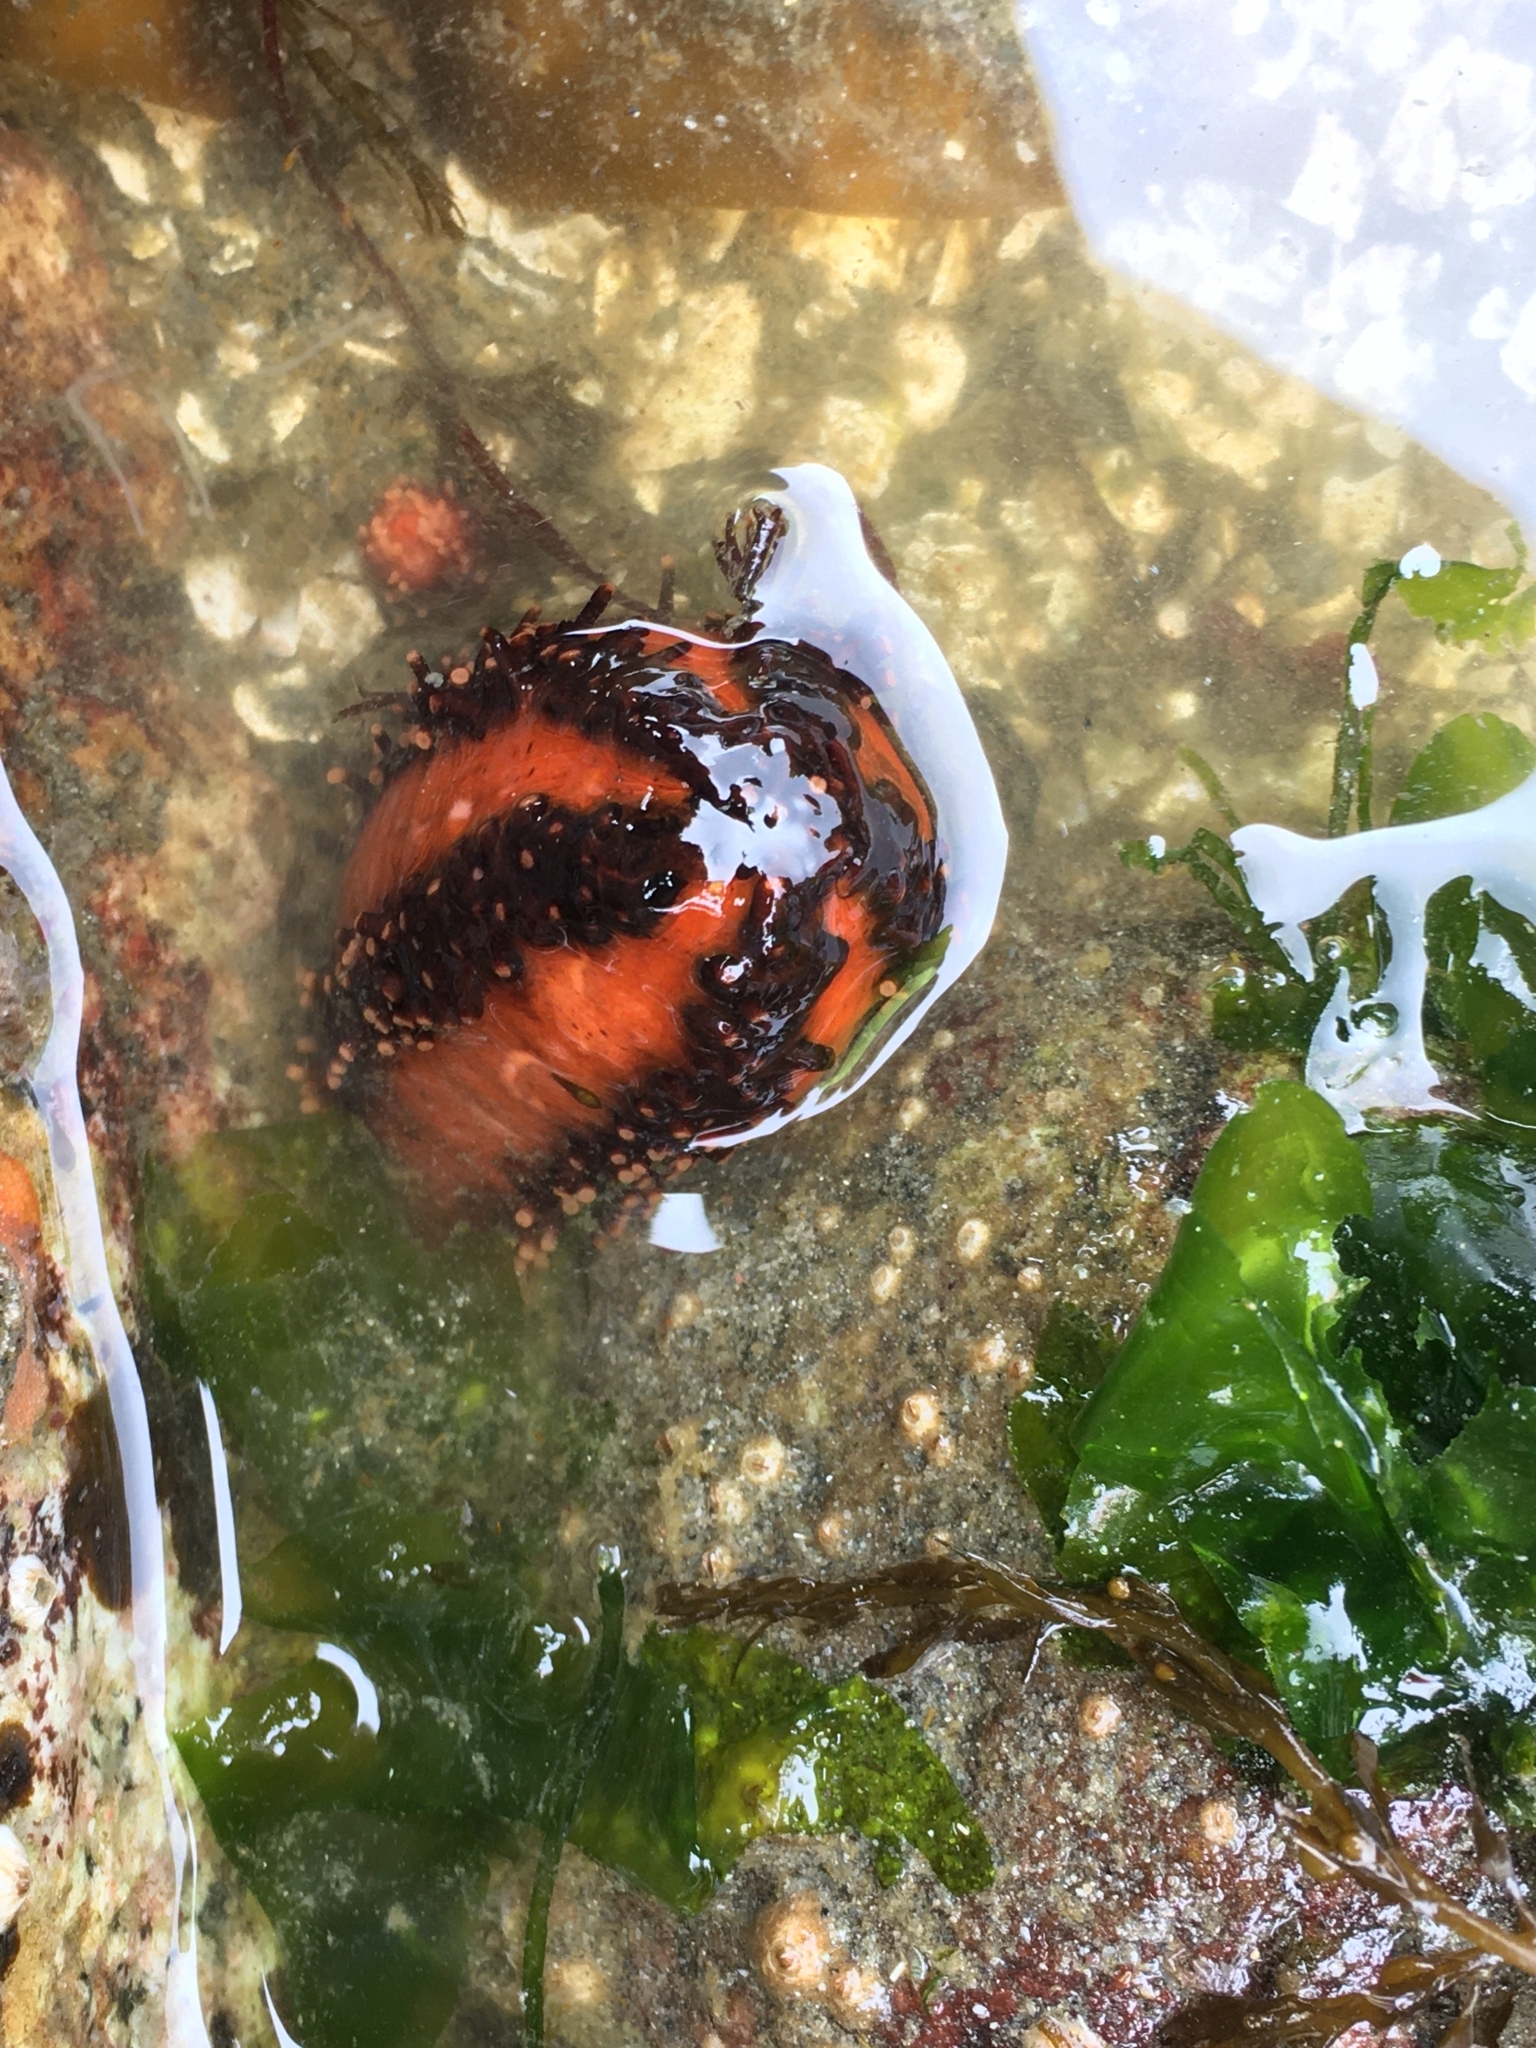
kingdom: Animalia
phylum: Echinodermata
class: Holothuroidea
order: Dendrochirotida
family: Cucumariidae
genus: Cucumaria
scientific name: Cucumaria miniata
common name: Orange sea cucumber
